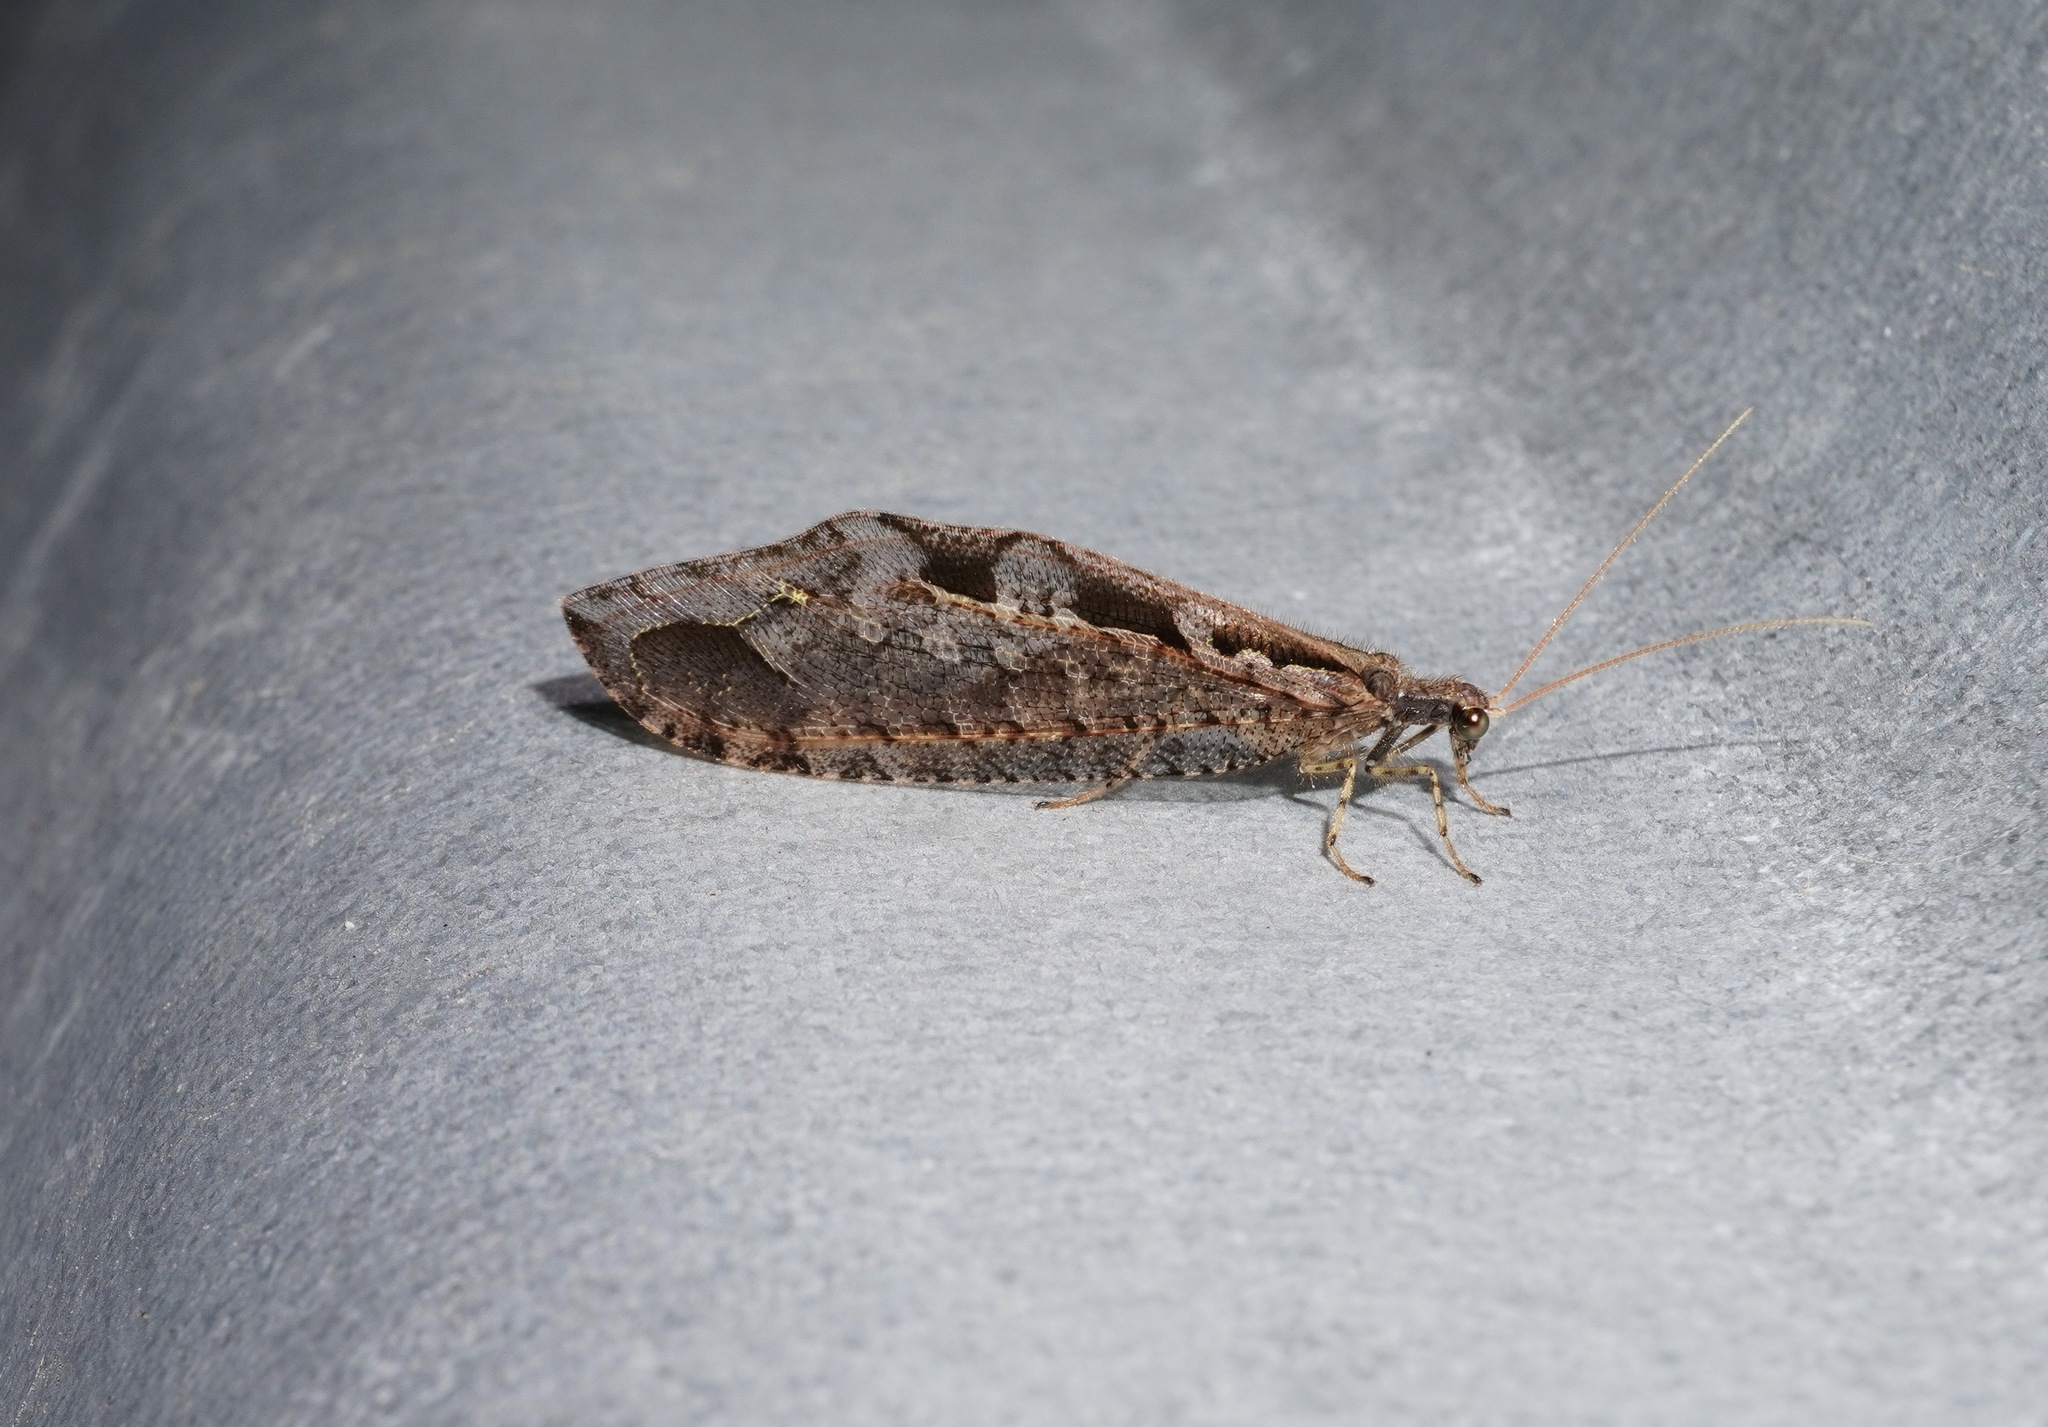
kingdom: Animalia
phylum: Arthropoda
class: Insecta
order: Neuroptera
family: Osmylidae
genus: Kempynus
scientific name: Kempynus incisus
